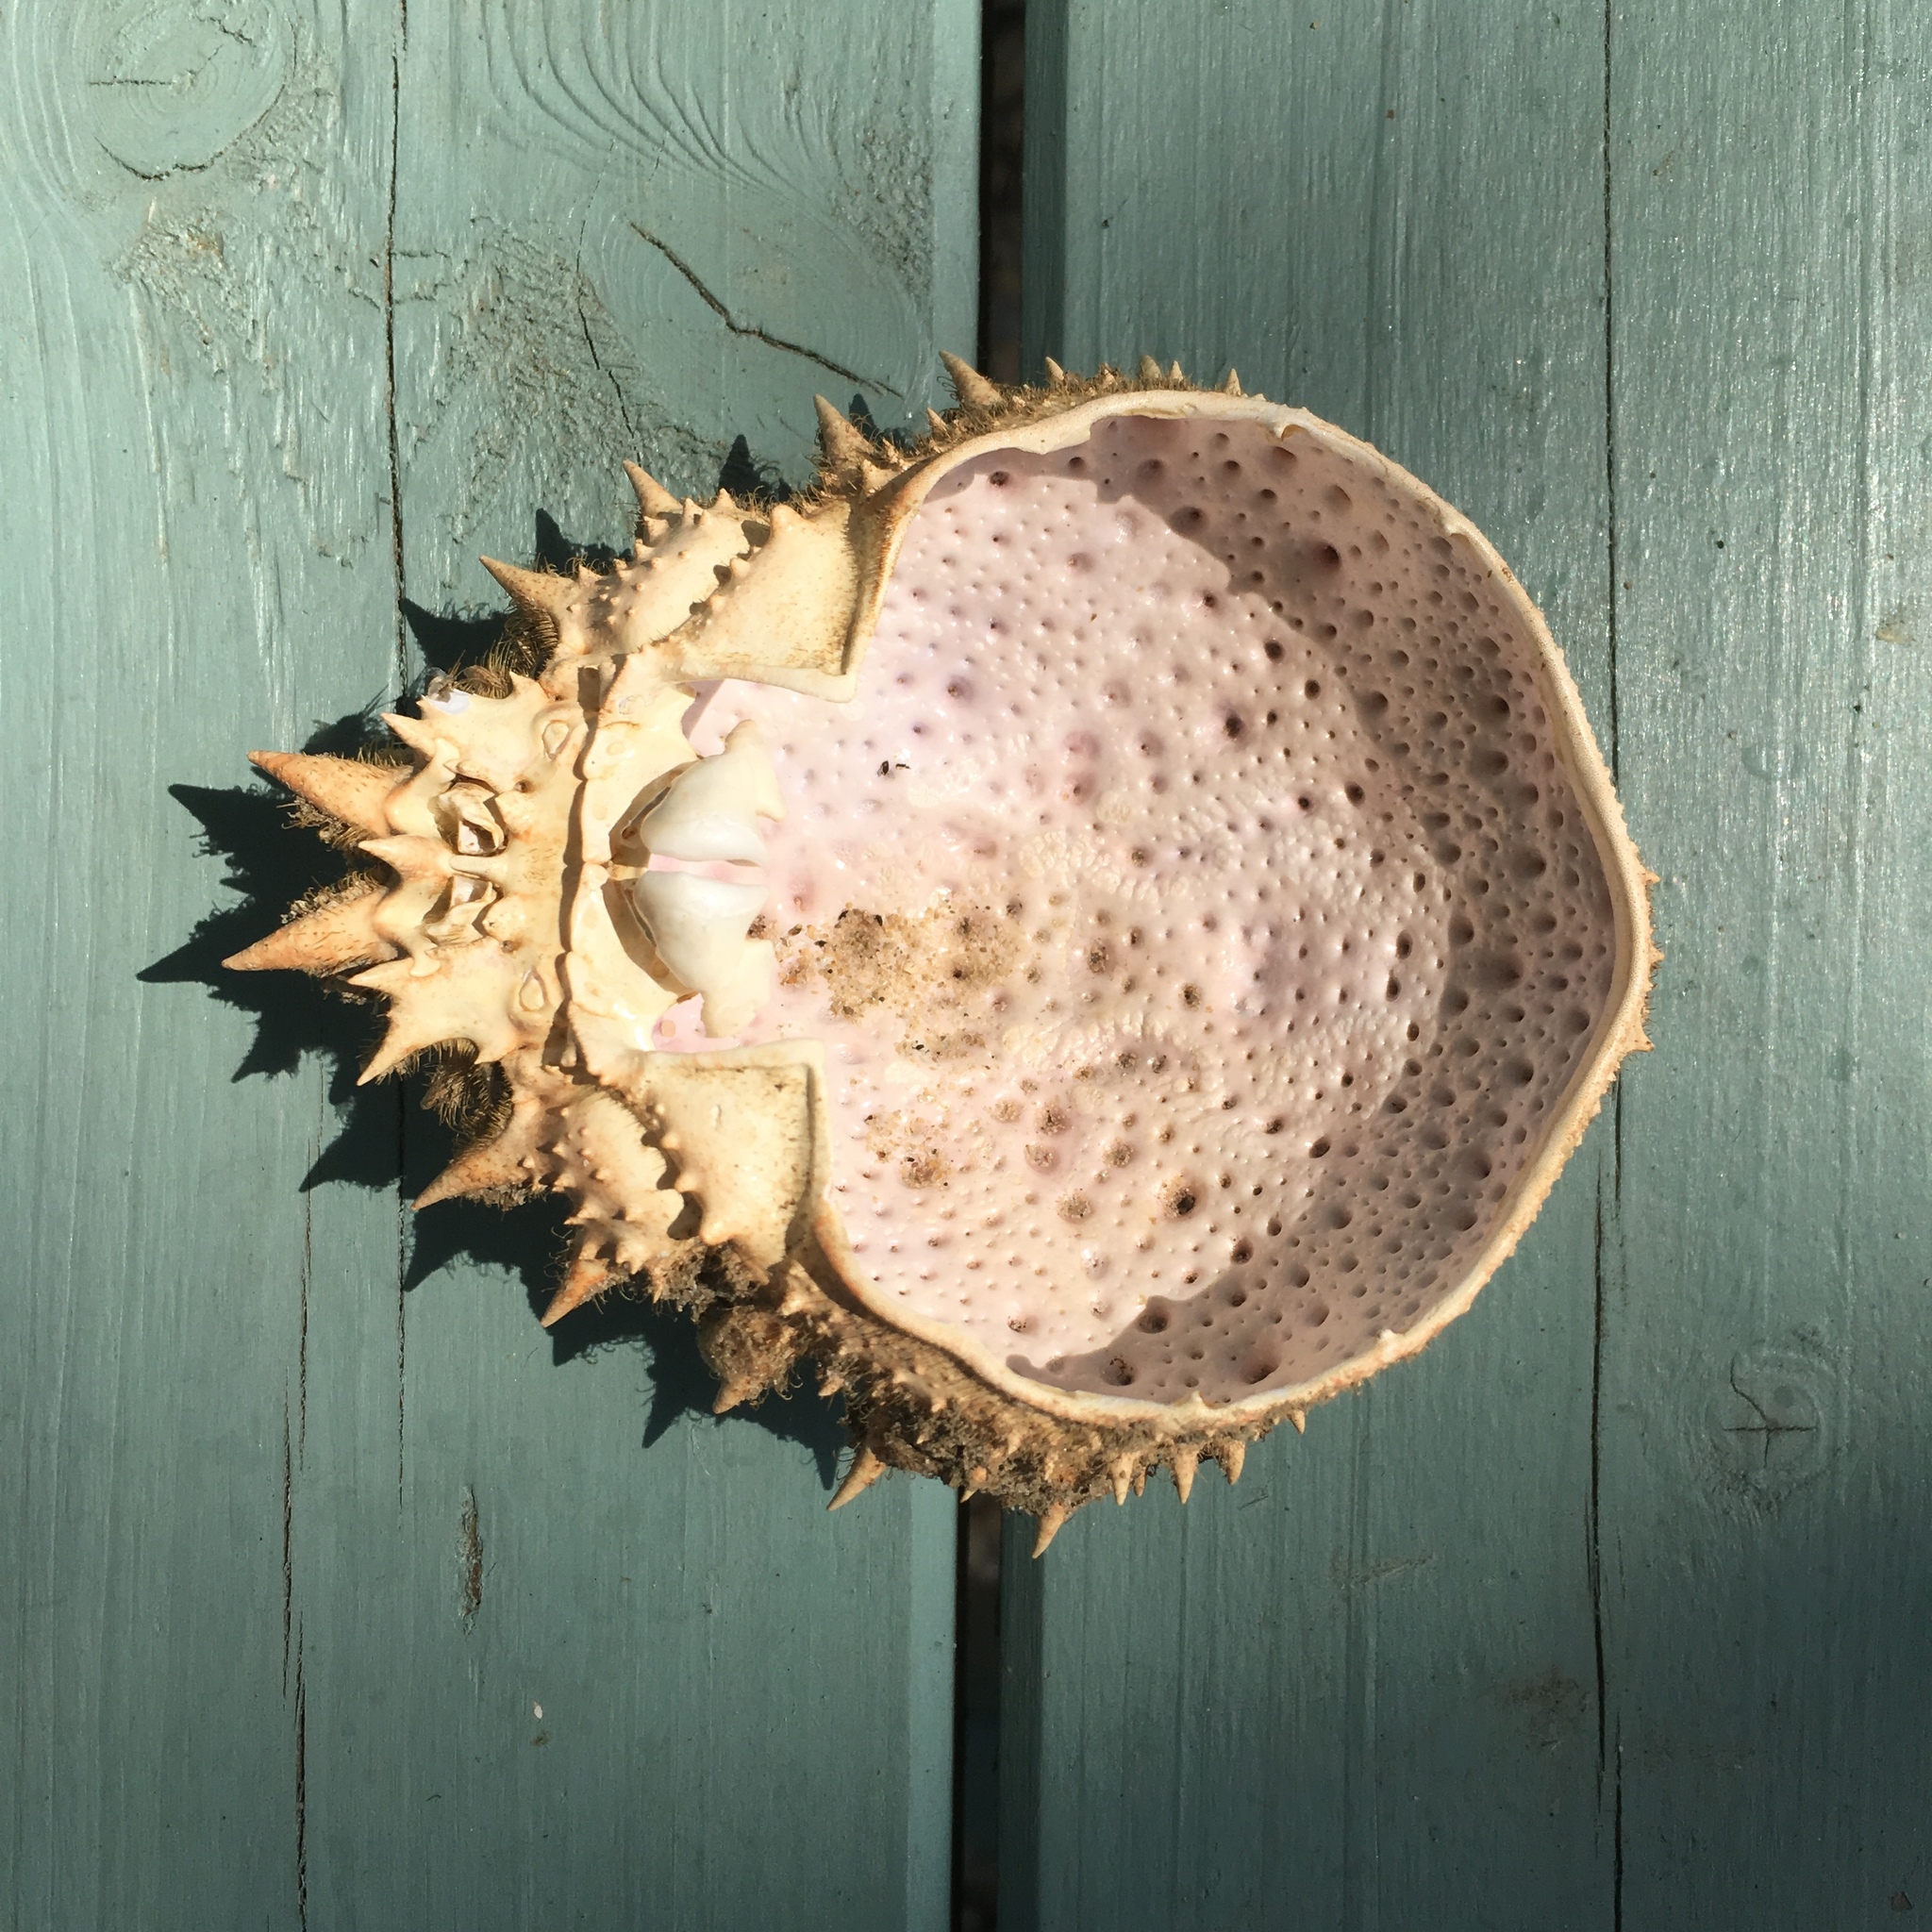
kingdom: Animalia
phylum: Arthropoda
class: Malacostraca
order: Decapoda
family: Majidae
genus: Maja
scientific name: Maja brachydactyla
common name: Common spider crab
